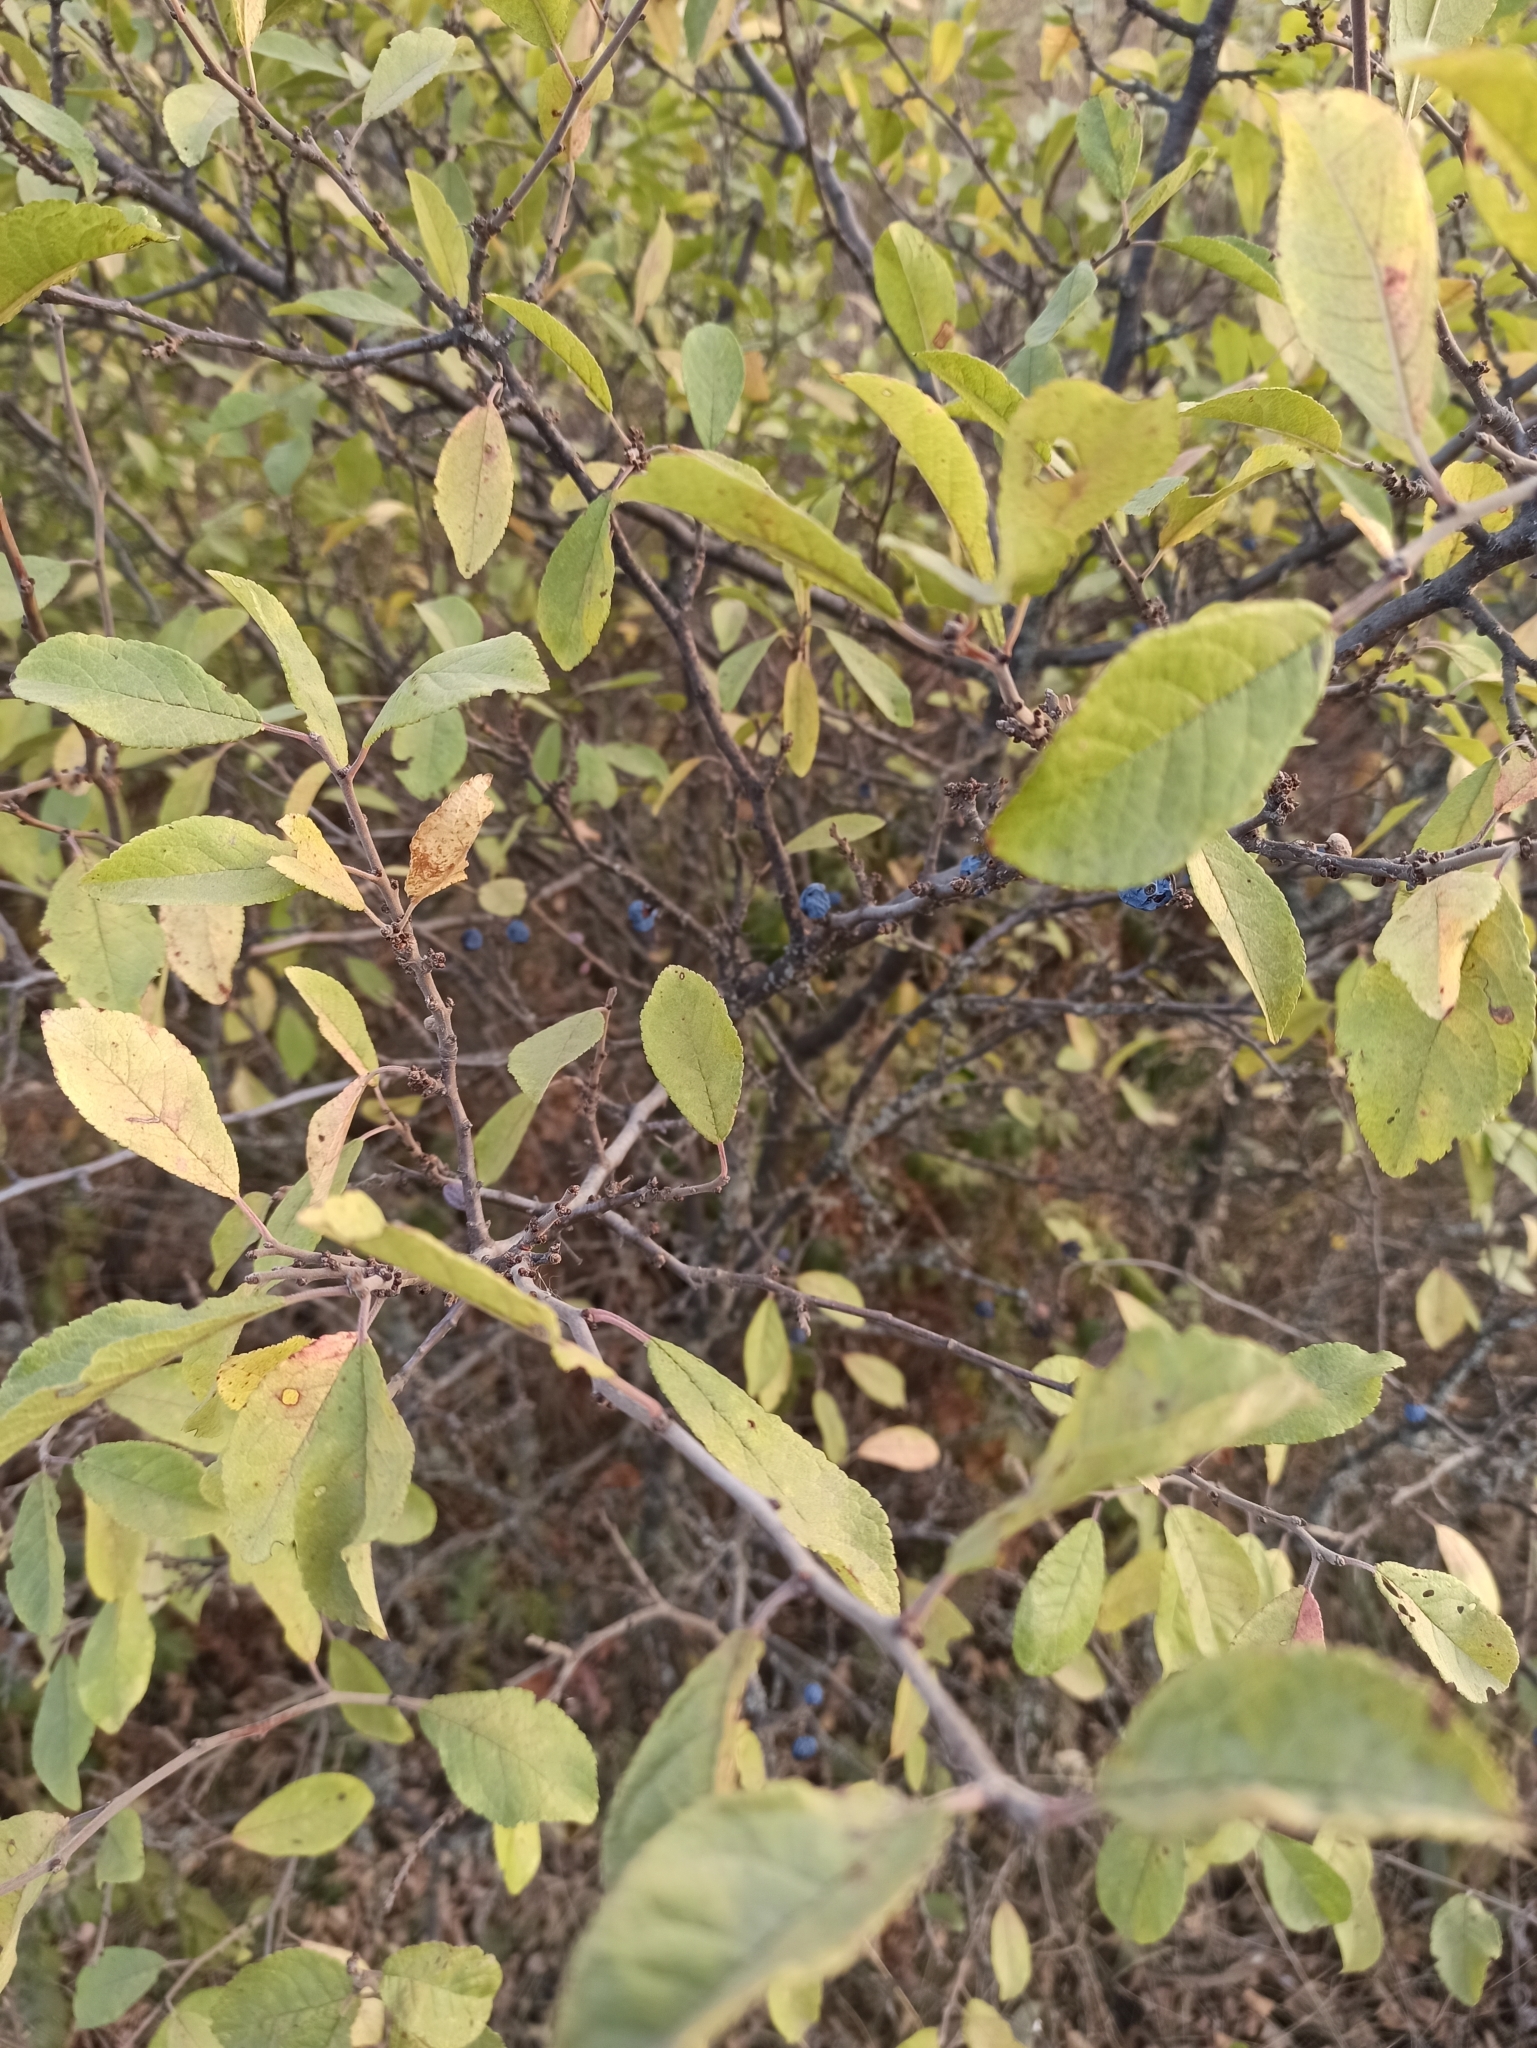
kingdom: Plantae
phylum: Tracheophyta
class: Magnoliopsida
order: Rosales
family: Rosaceae
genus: Prunus
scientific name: Prunus spinosa
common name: Blackthorn
